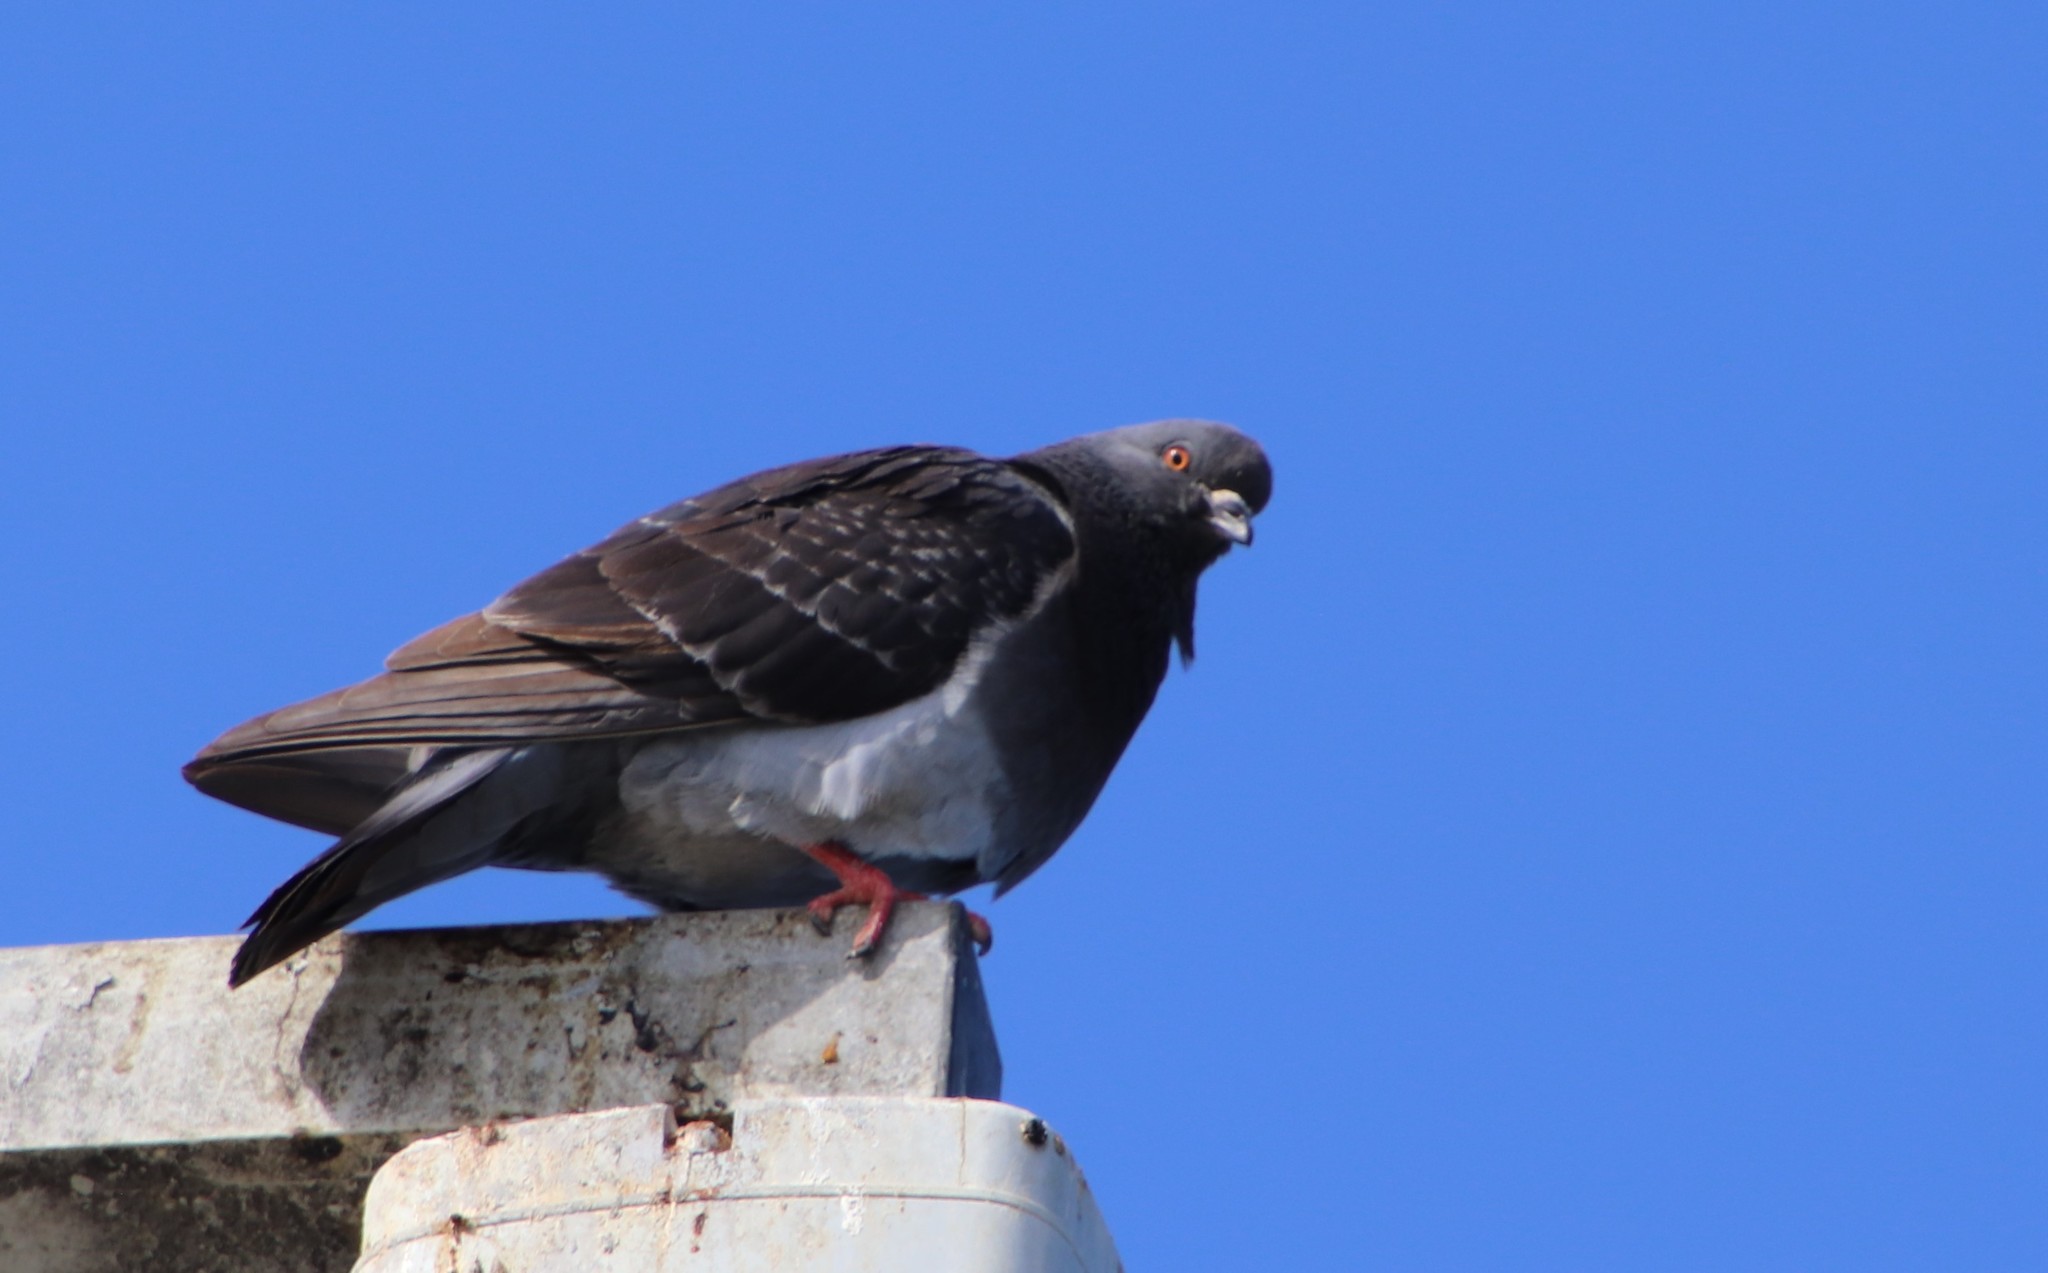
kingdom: Animalia
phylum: Chordata
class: Aves
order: Columbiformes
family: Columbidae
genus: Columba
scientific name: Columba livia
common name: Rock pigeon
